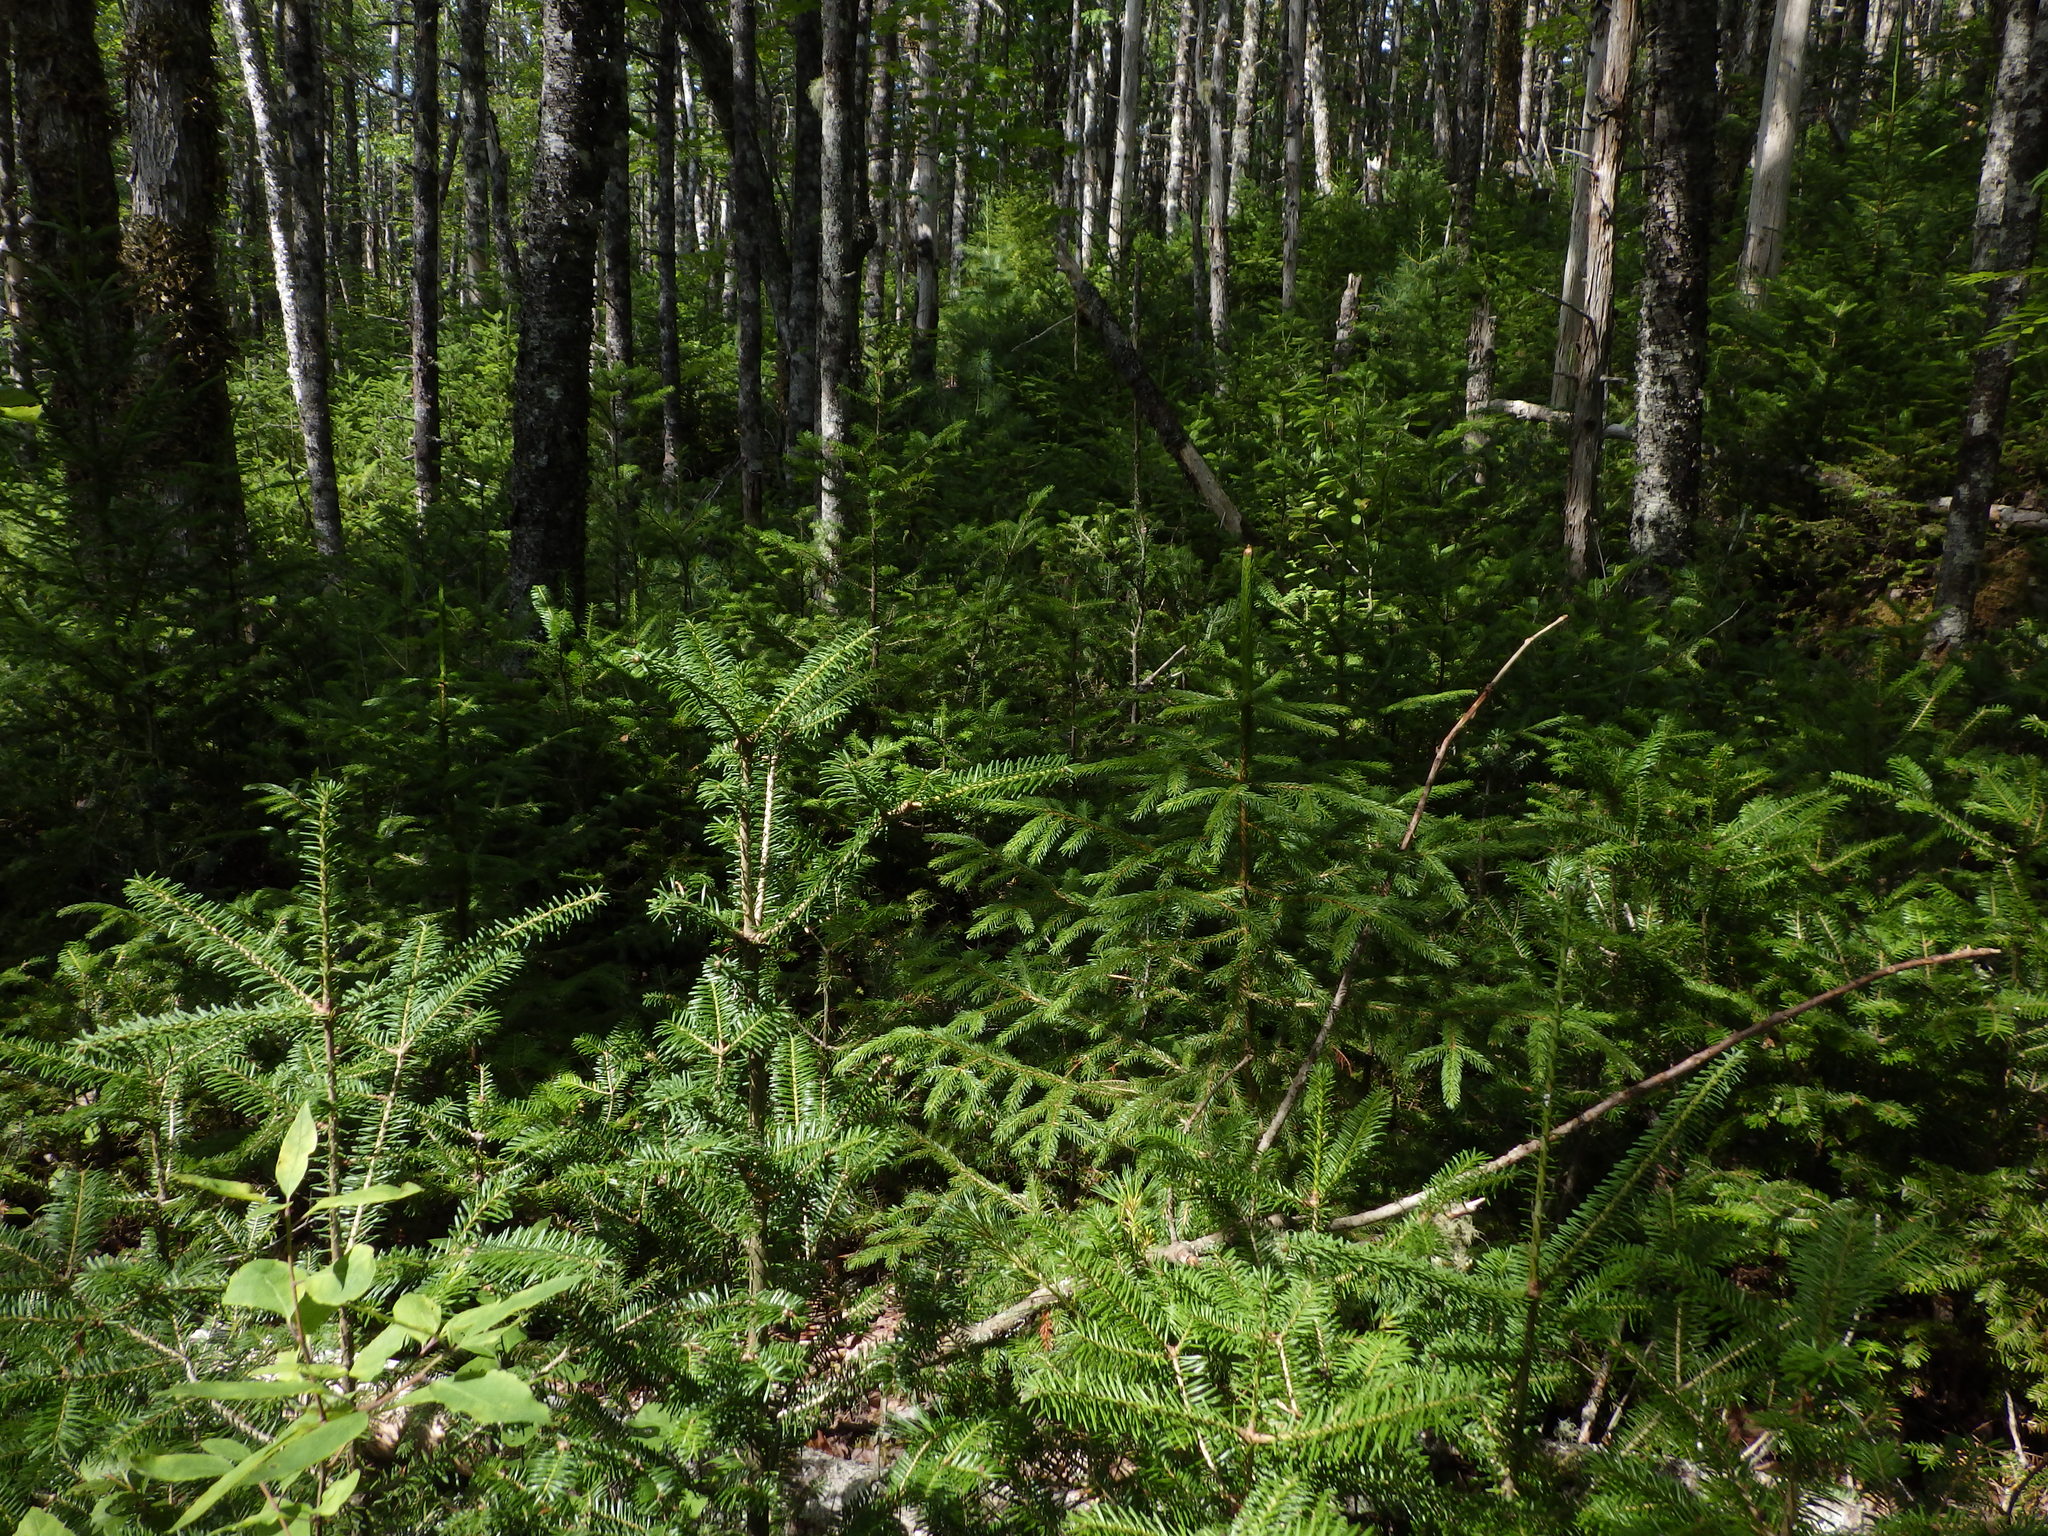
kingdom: Plantae
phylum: Tracheophyta
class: Pinopsida
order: Pinales
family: Pinaceae
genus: Abies
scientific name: Abies balsamea
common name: Balsam fir
